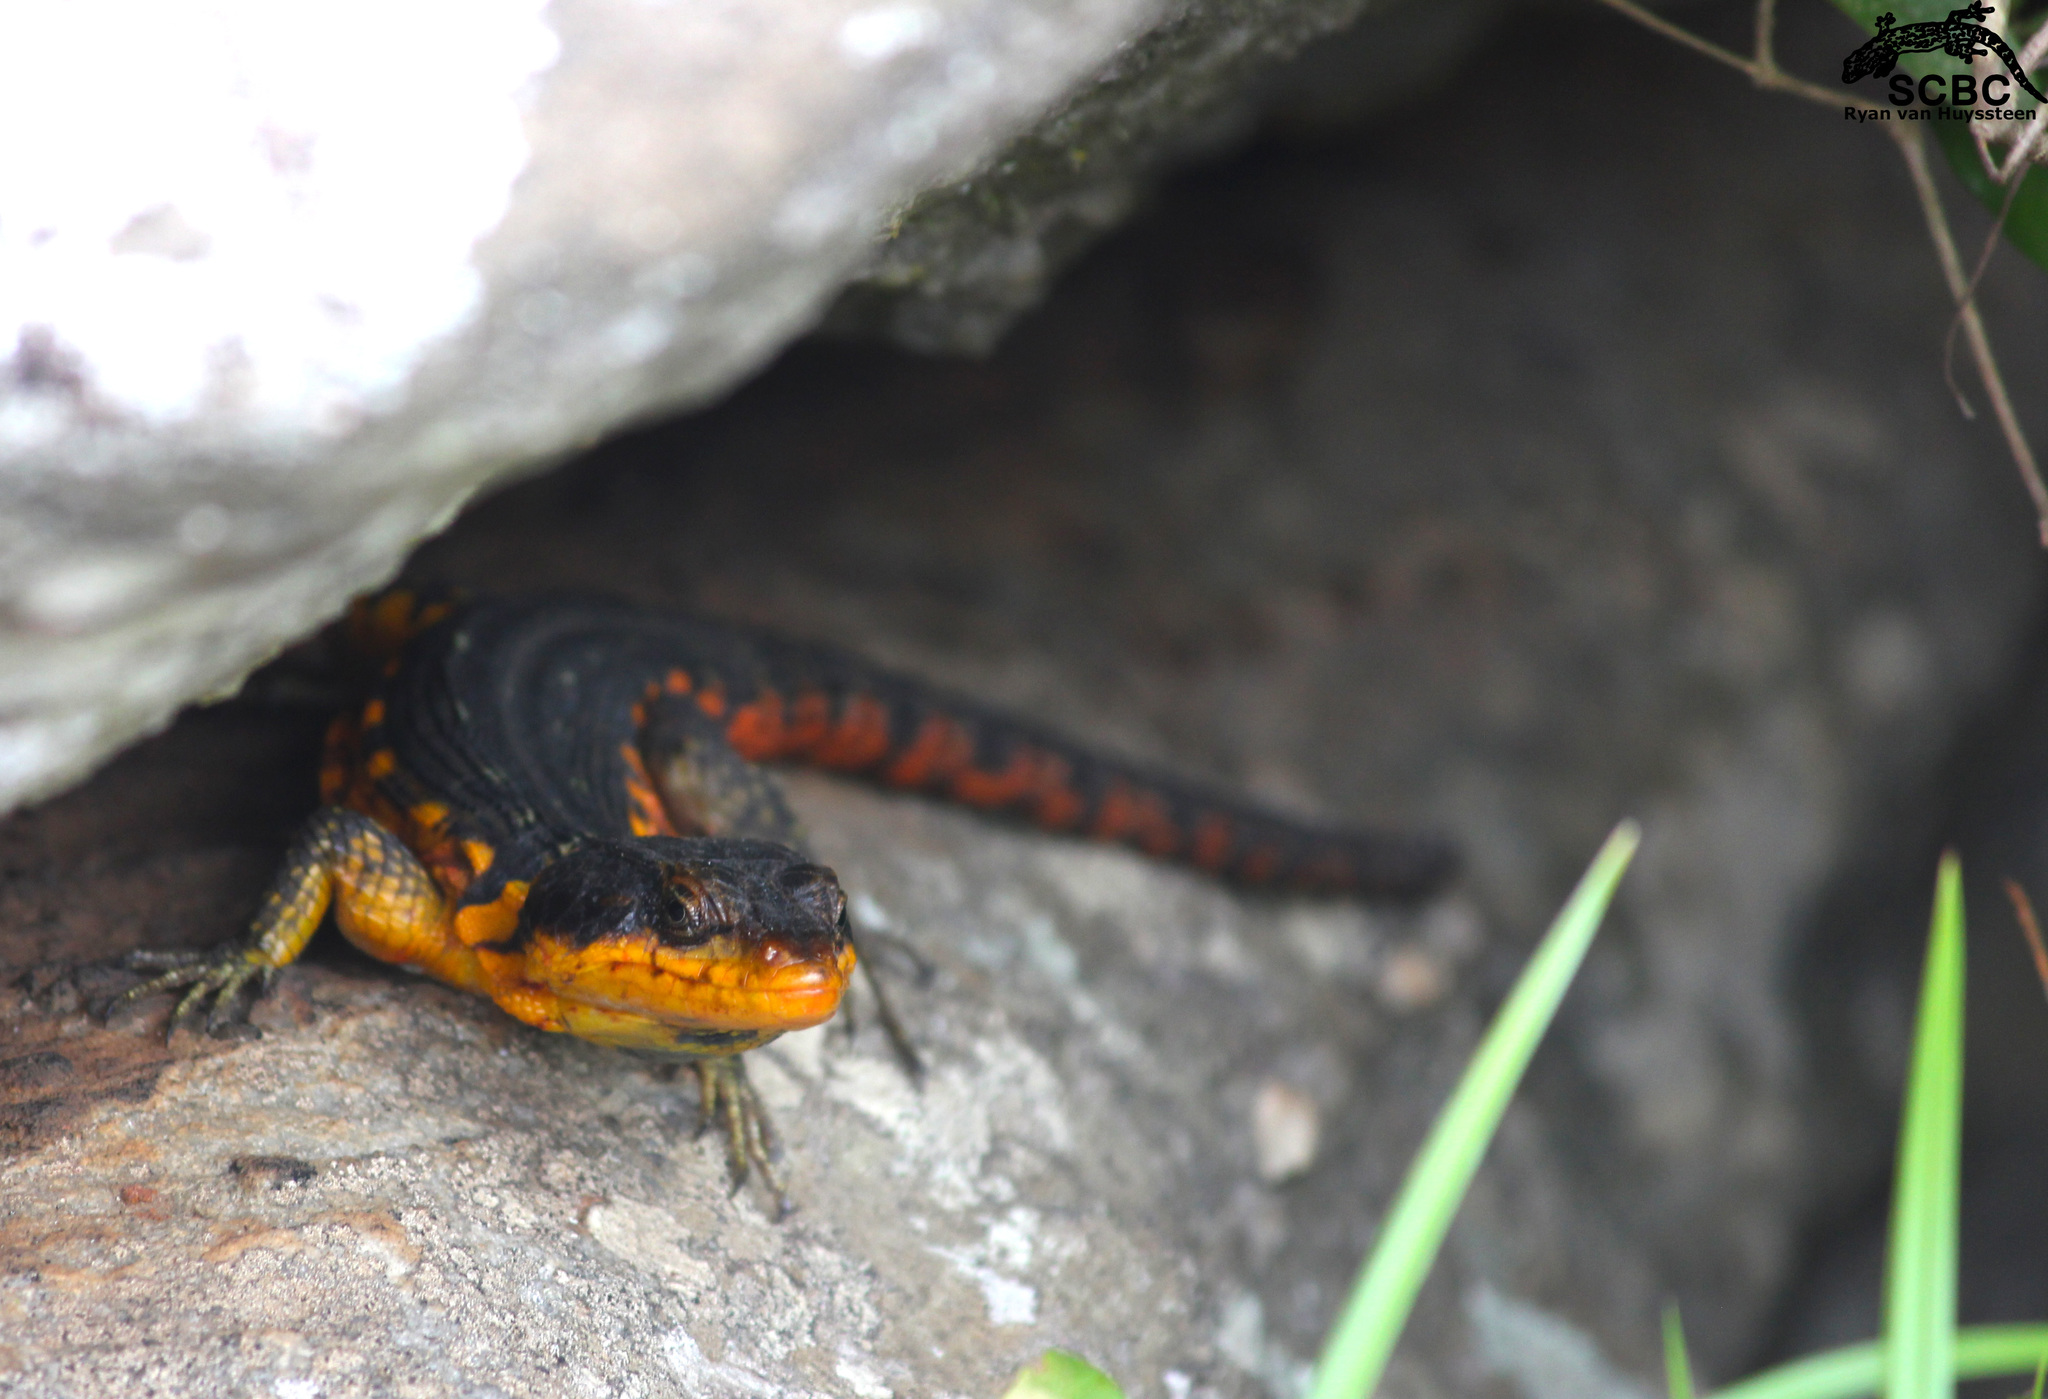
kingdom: Animalia
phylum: Chordata
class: Squamata
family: Cordylidae
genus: Pseudocordylus
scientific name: Pseudocordylus melanotus
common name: Highveld crag lizard
